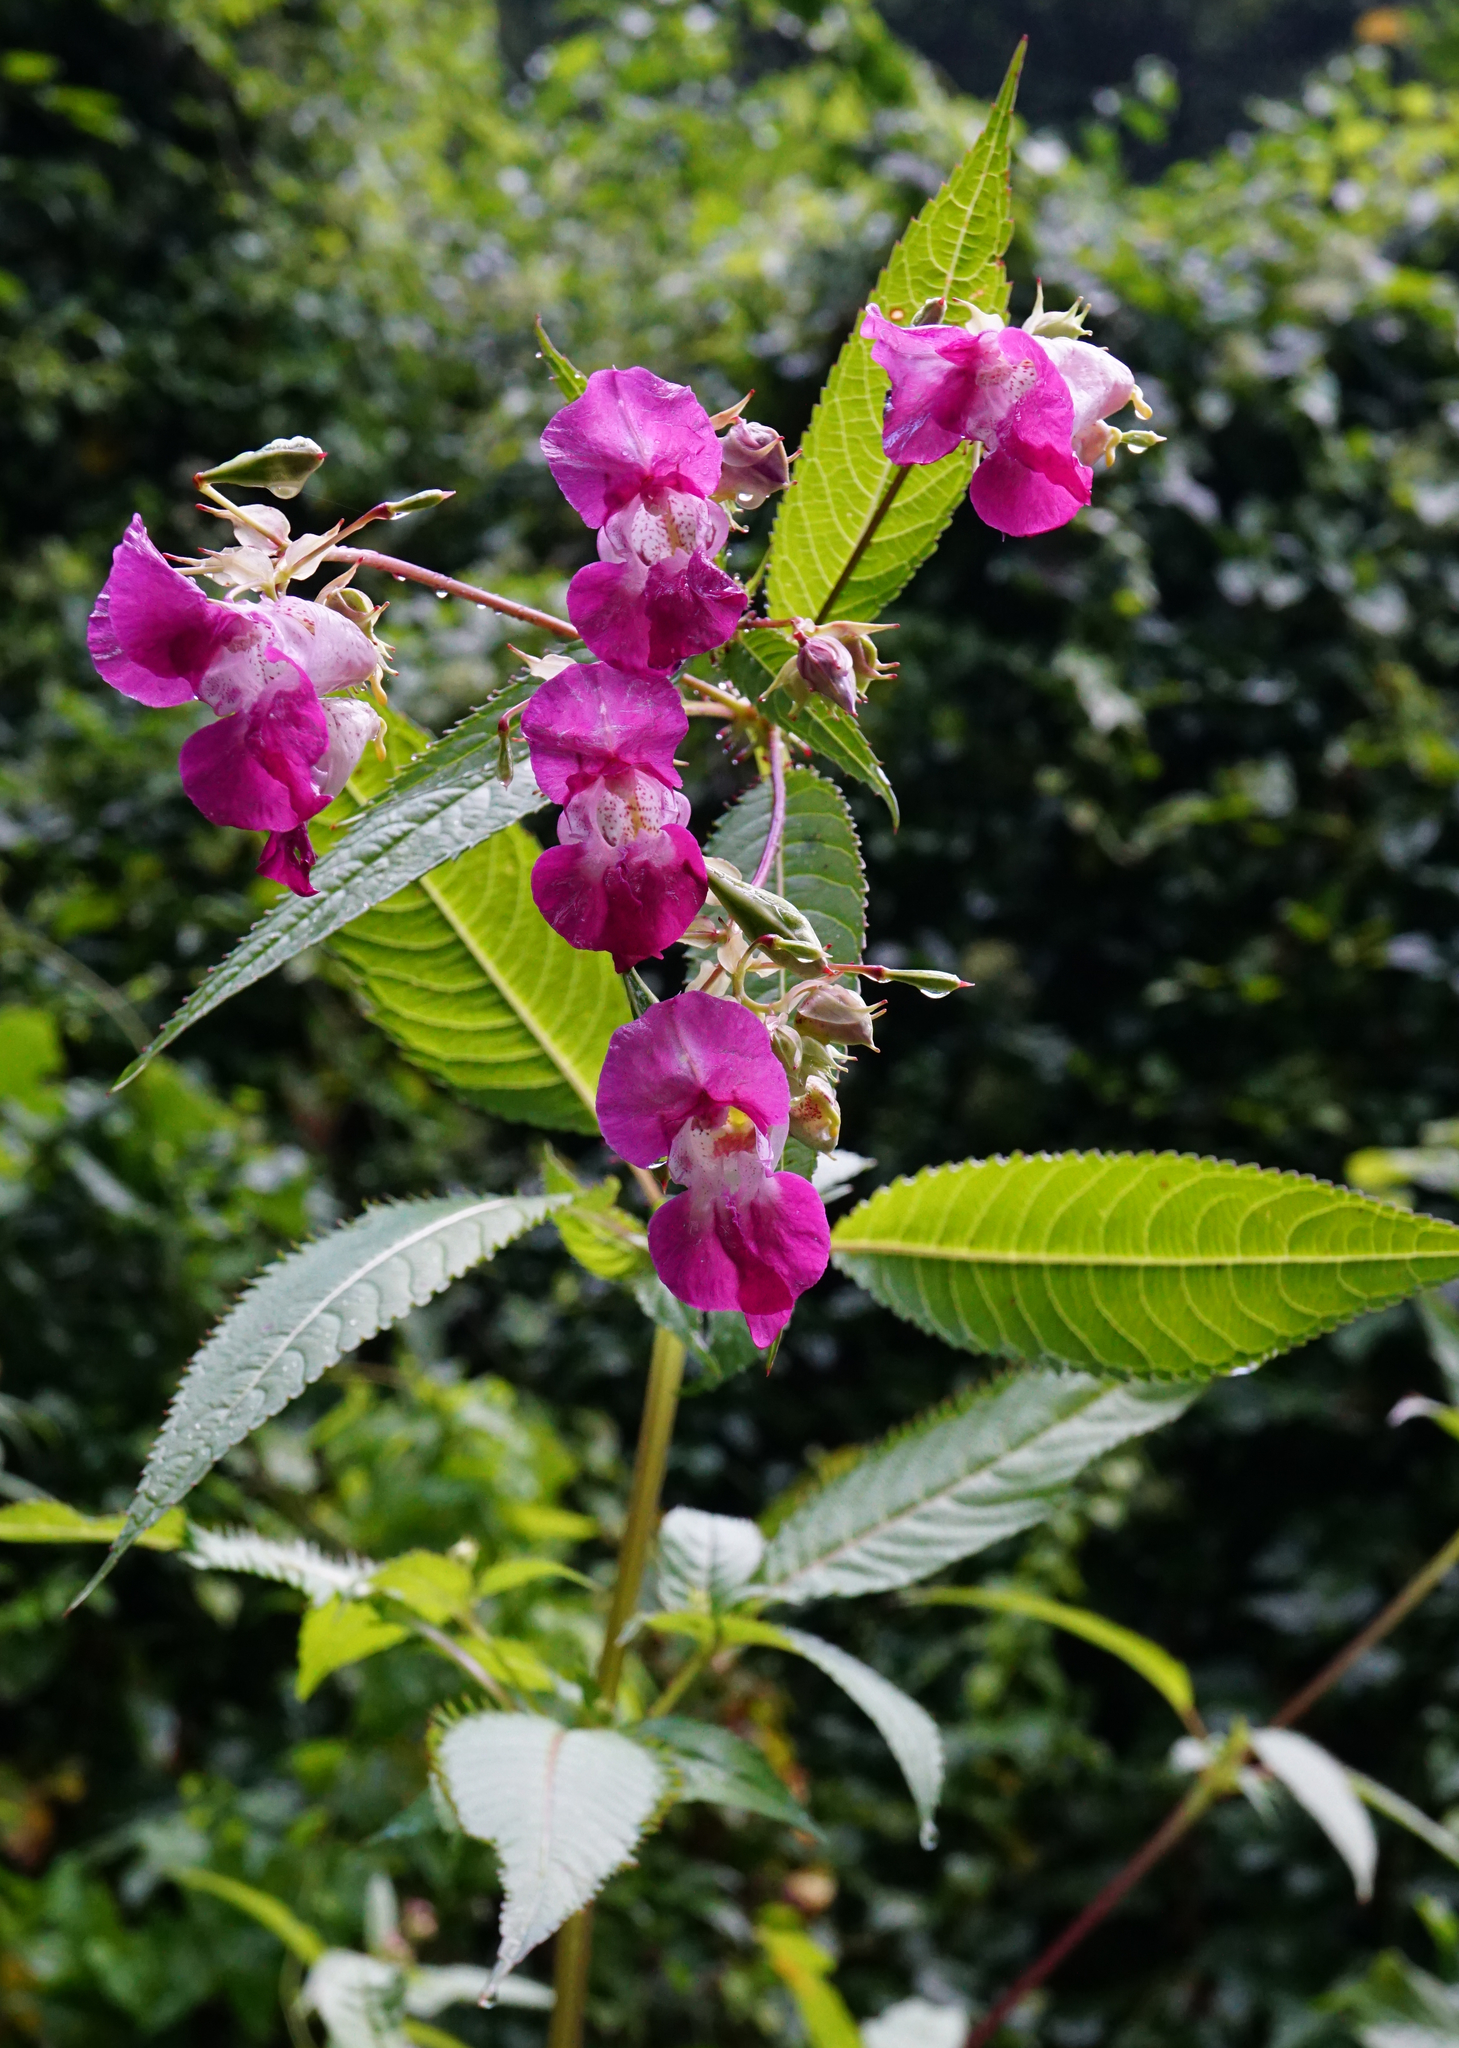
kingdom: Plantae
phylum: Tracheophyta
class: Magnoliopsida
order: Ericales
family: Balsaminaceae
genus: Impatiens
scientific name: Impatiens glandulifera
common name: Himalayan balsam
